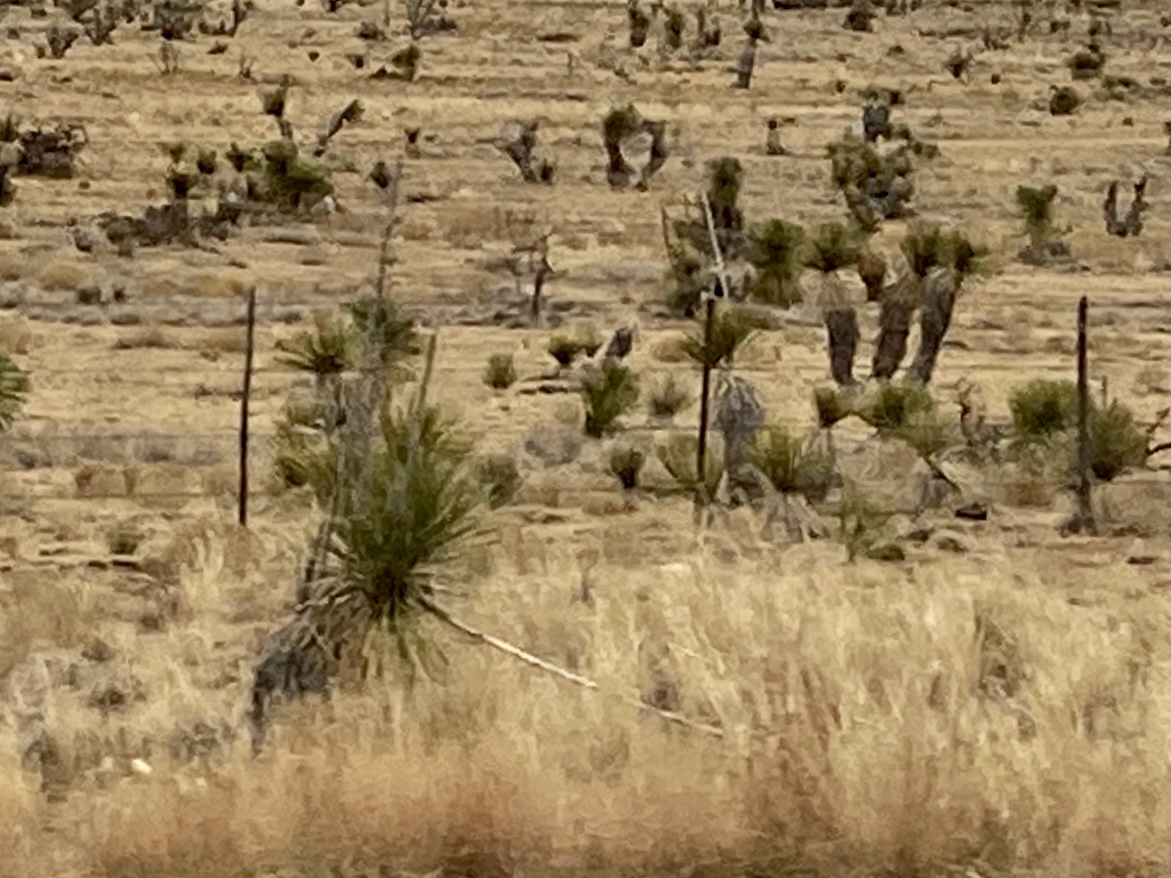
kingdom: Plantae
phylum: Tracheophyta
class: Liliopsida
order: Asparagales
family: Asparagaceae
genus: Yucca
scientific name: Yucca elata
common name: Palmella
